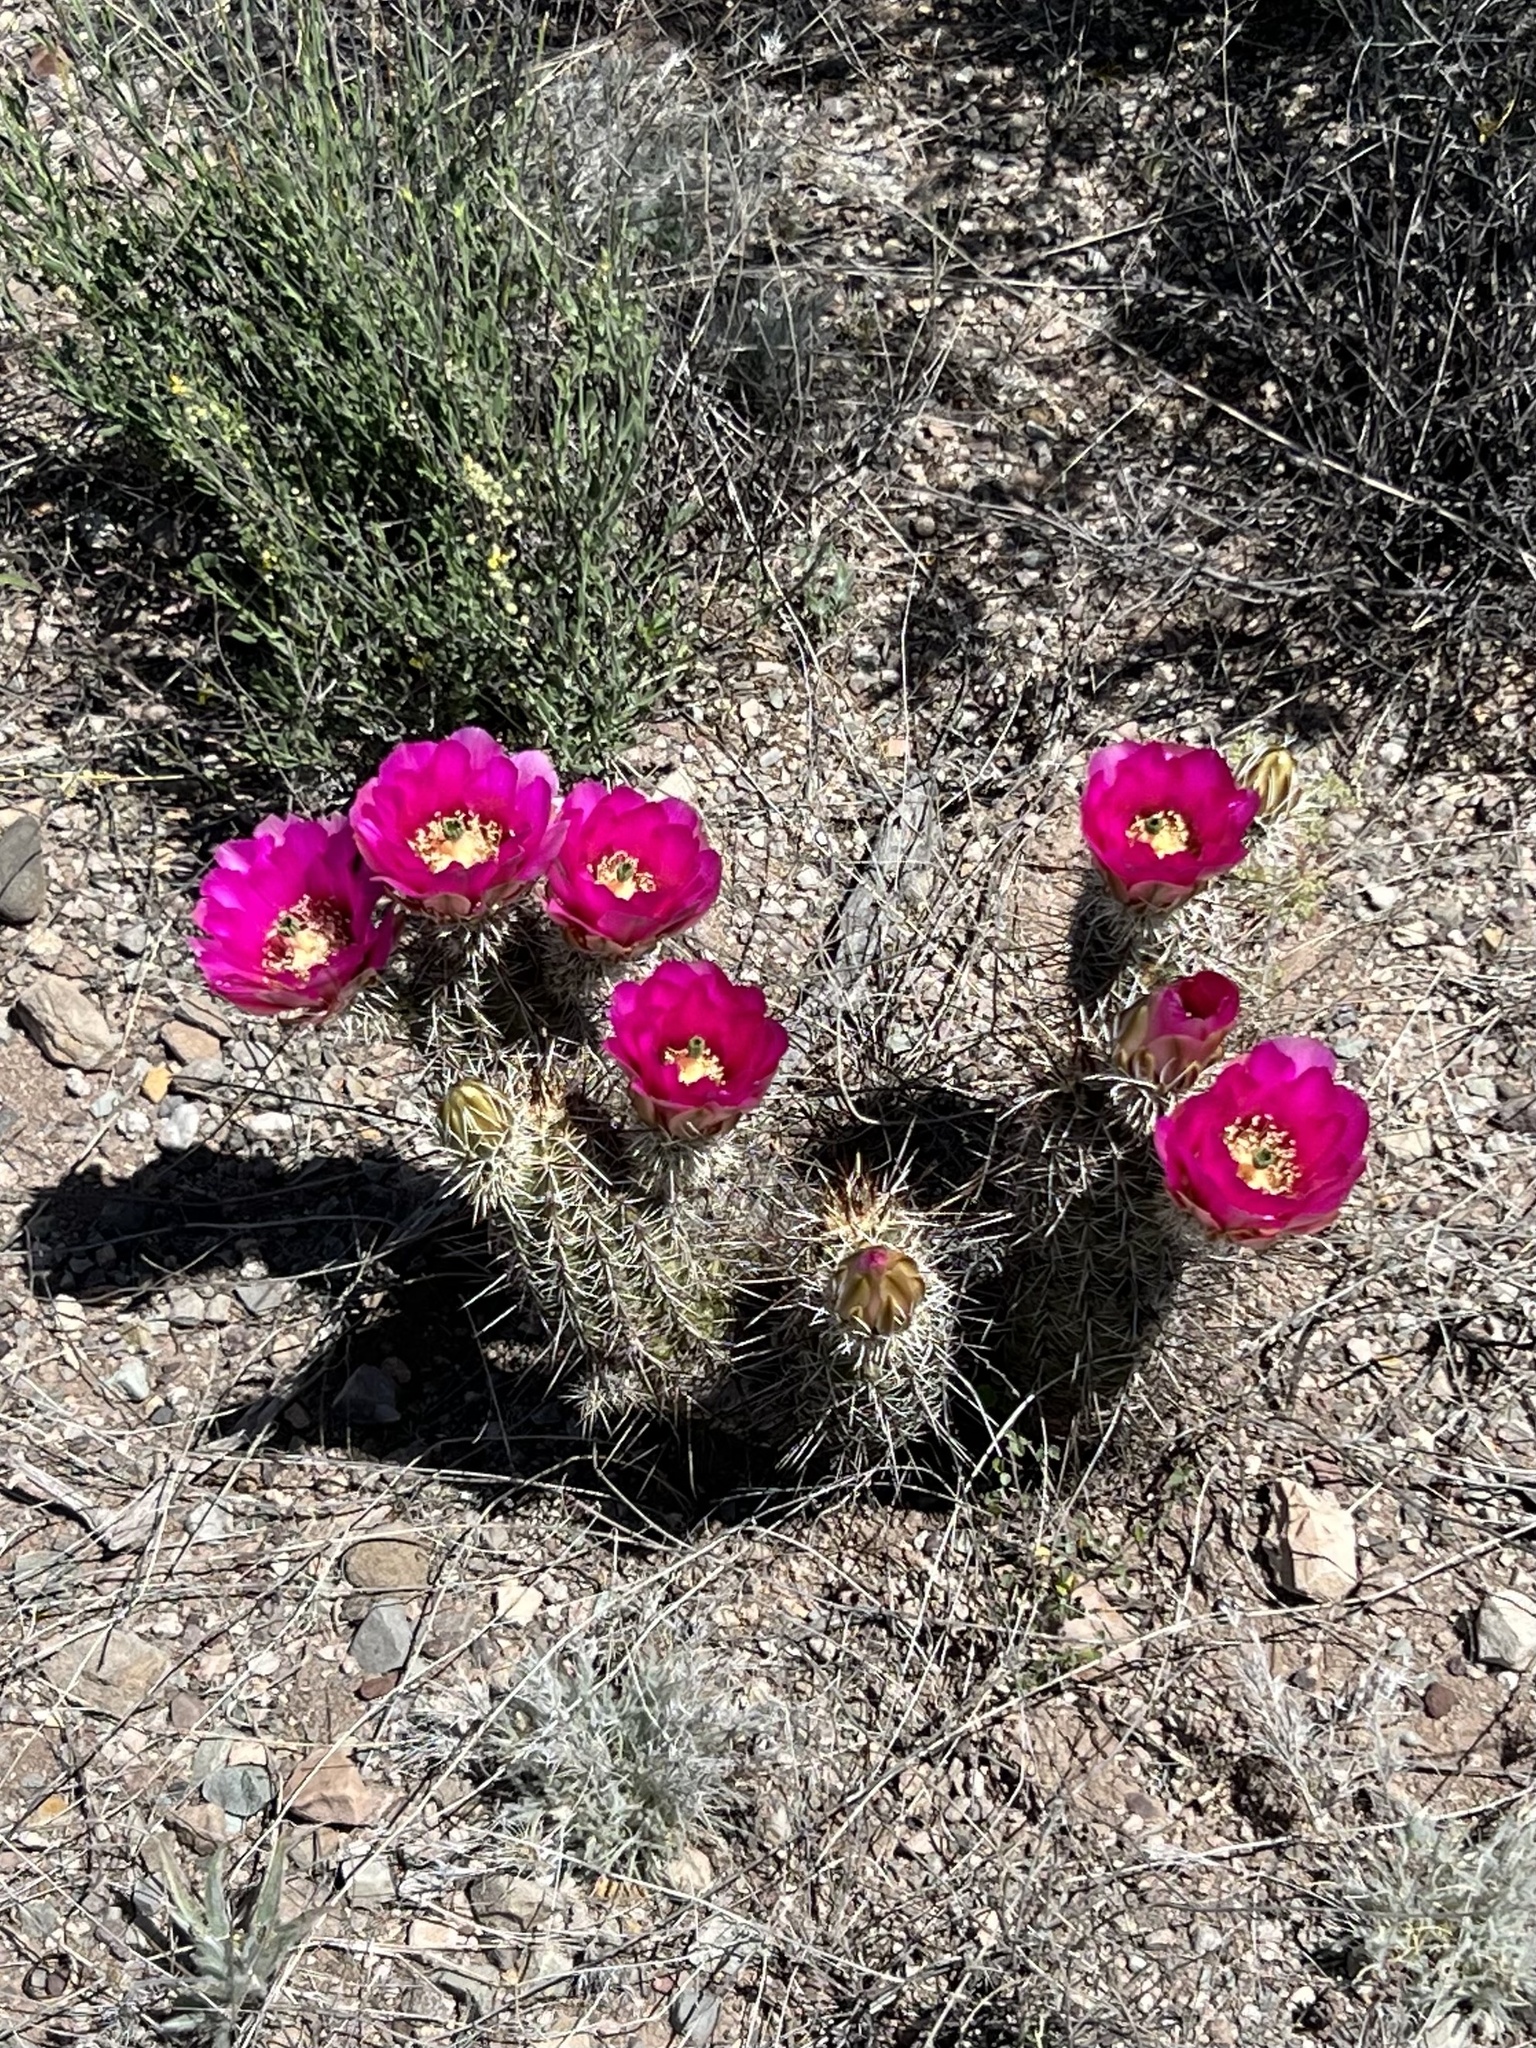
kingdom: Plantae
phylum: Tracheophyta
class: Magnoliopsida
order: Caryophyllales
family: Cactaceae
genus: Echinocereus
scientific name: Echinocereus fasciculatus
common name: Bundle hedgehog
